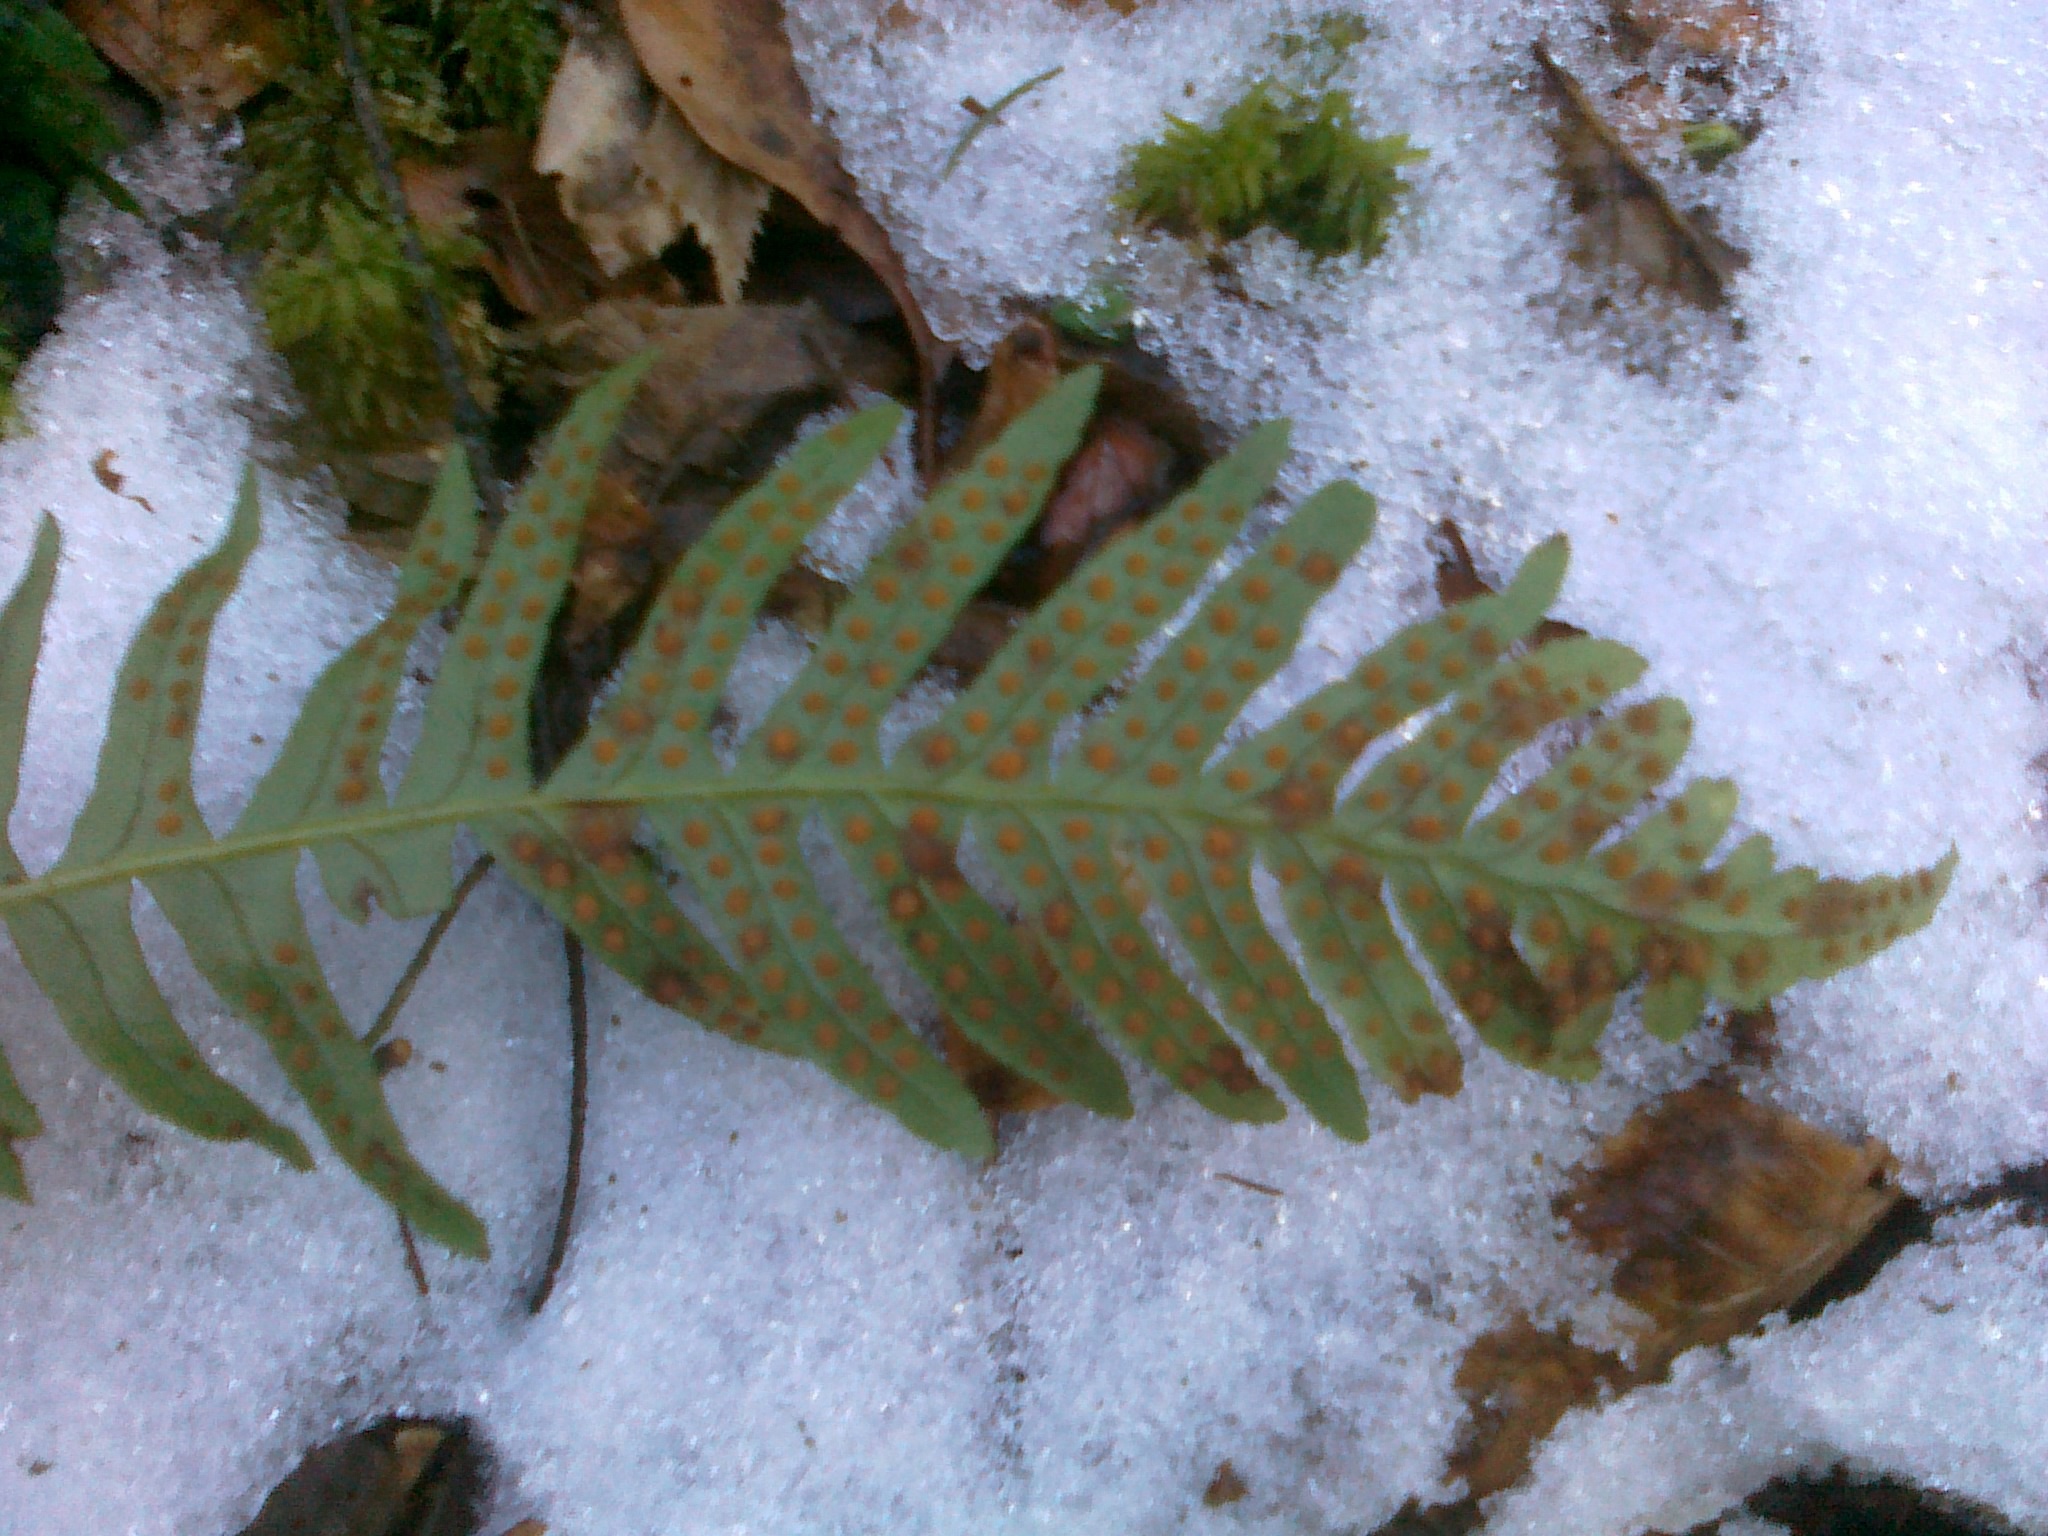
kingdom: Plantae
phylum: Tracheophyta
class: Polypodiopsida
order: Polypodiales
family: Polypodiaceae
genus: Polypodium
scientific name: Polypodium vulgare
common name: Common polypody
